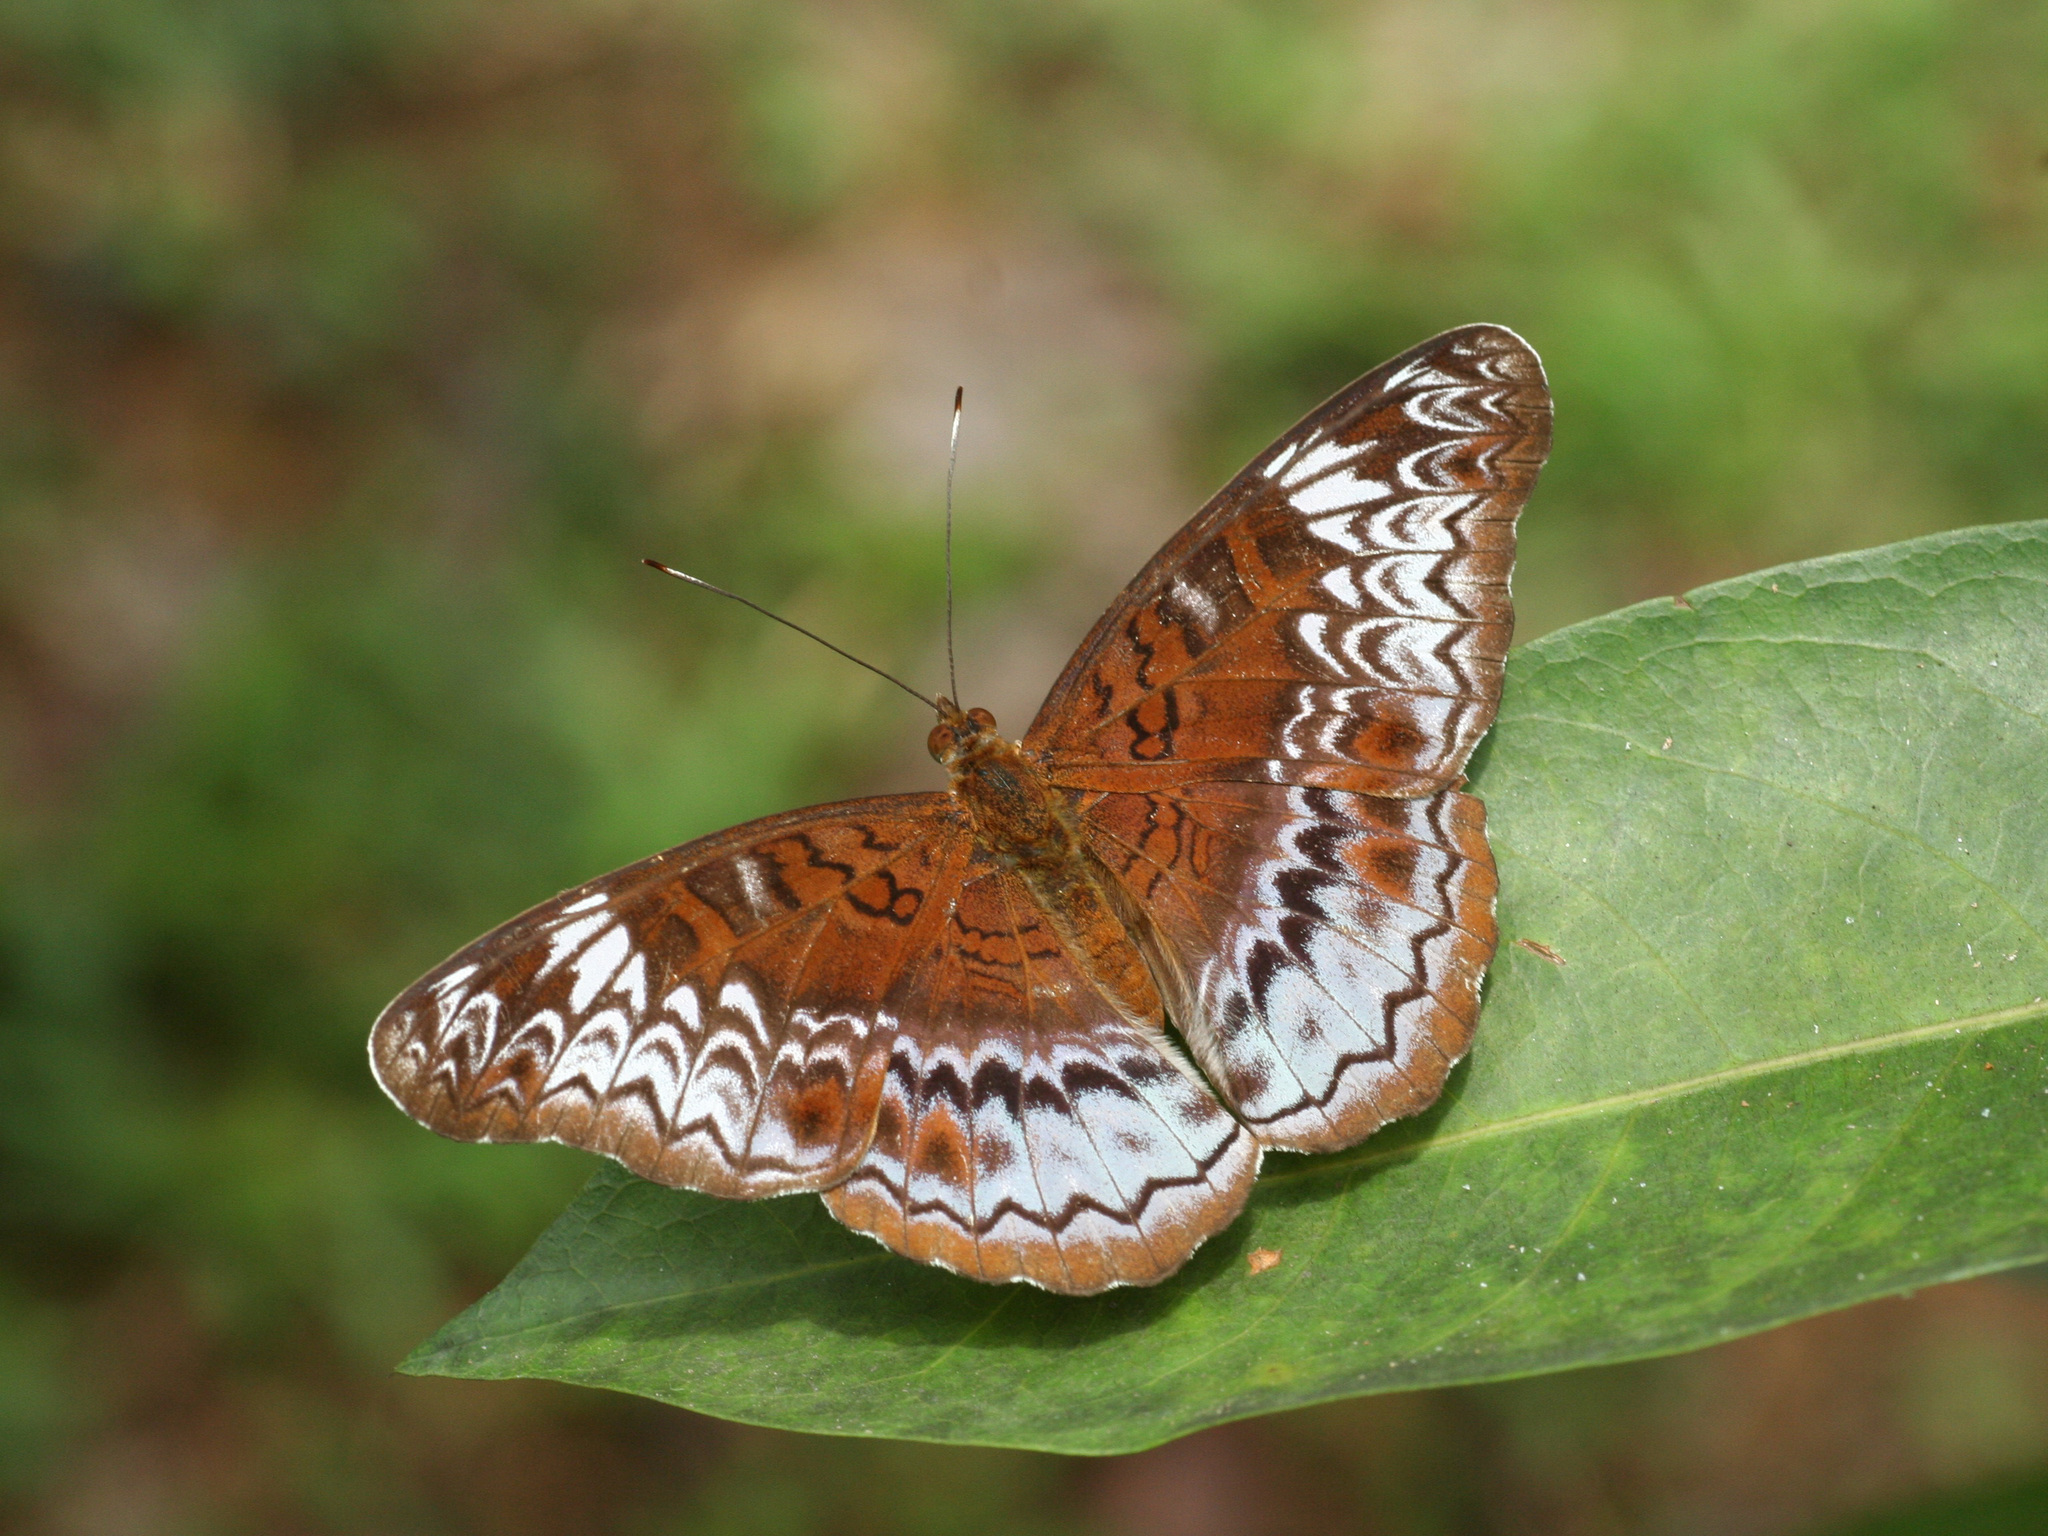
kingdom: Animalia
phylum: Arthropoda
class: Insecta
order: Lepidoptera
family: Nymphalidae
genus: Lebadea
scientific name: Lebadea martha
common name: Knight
